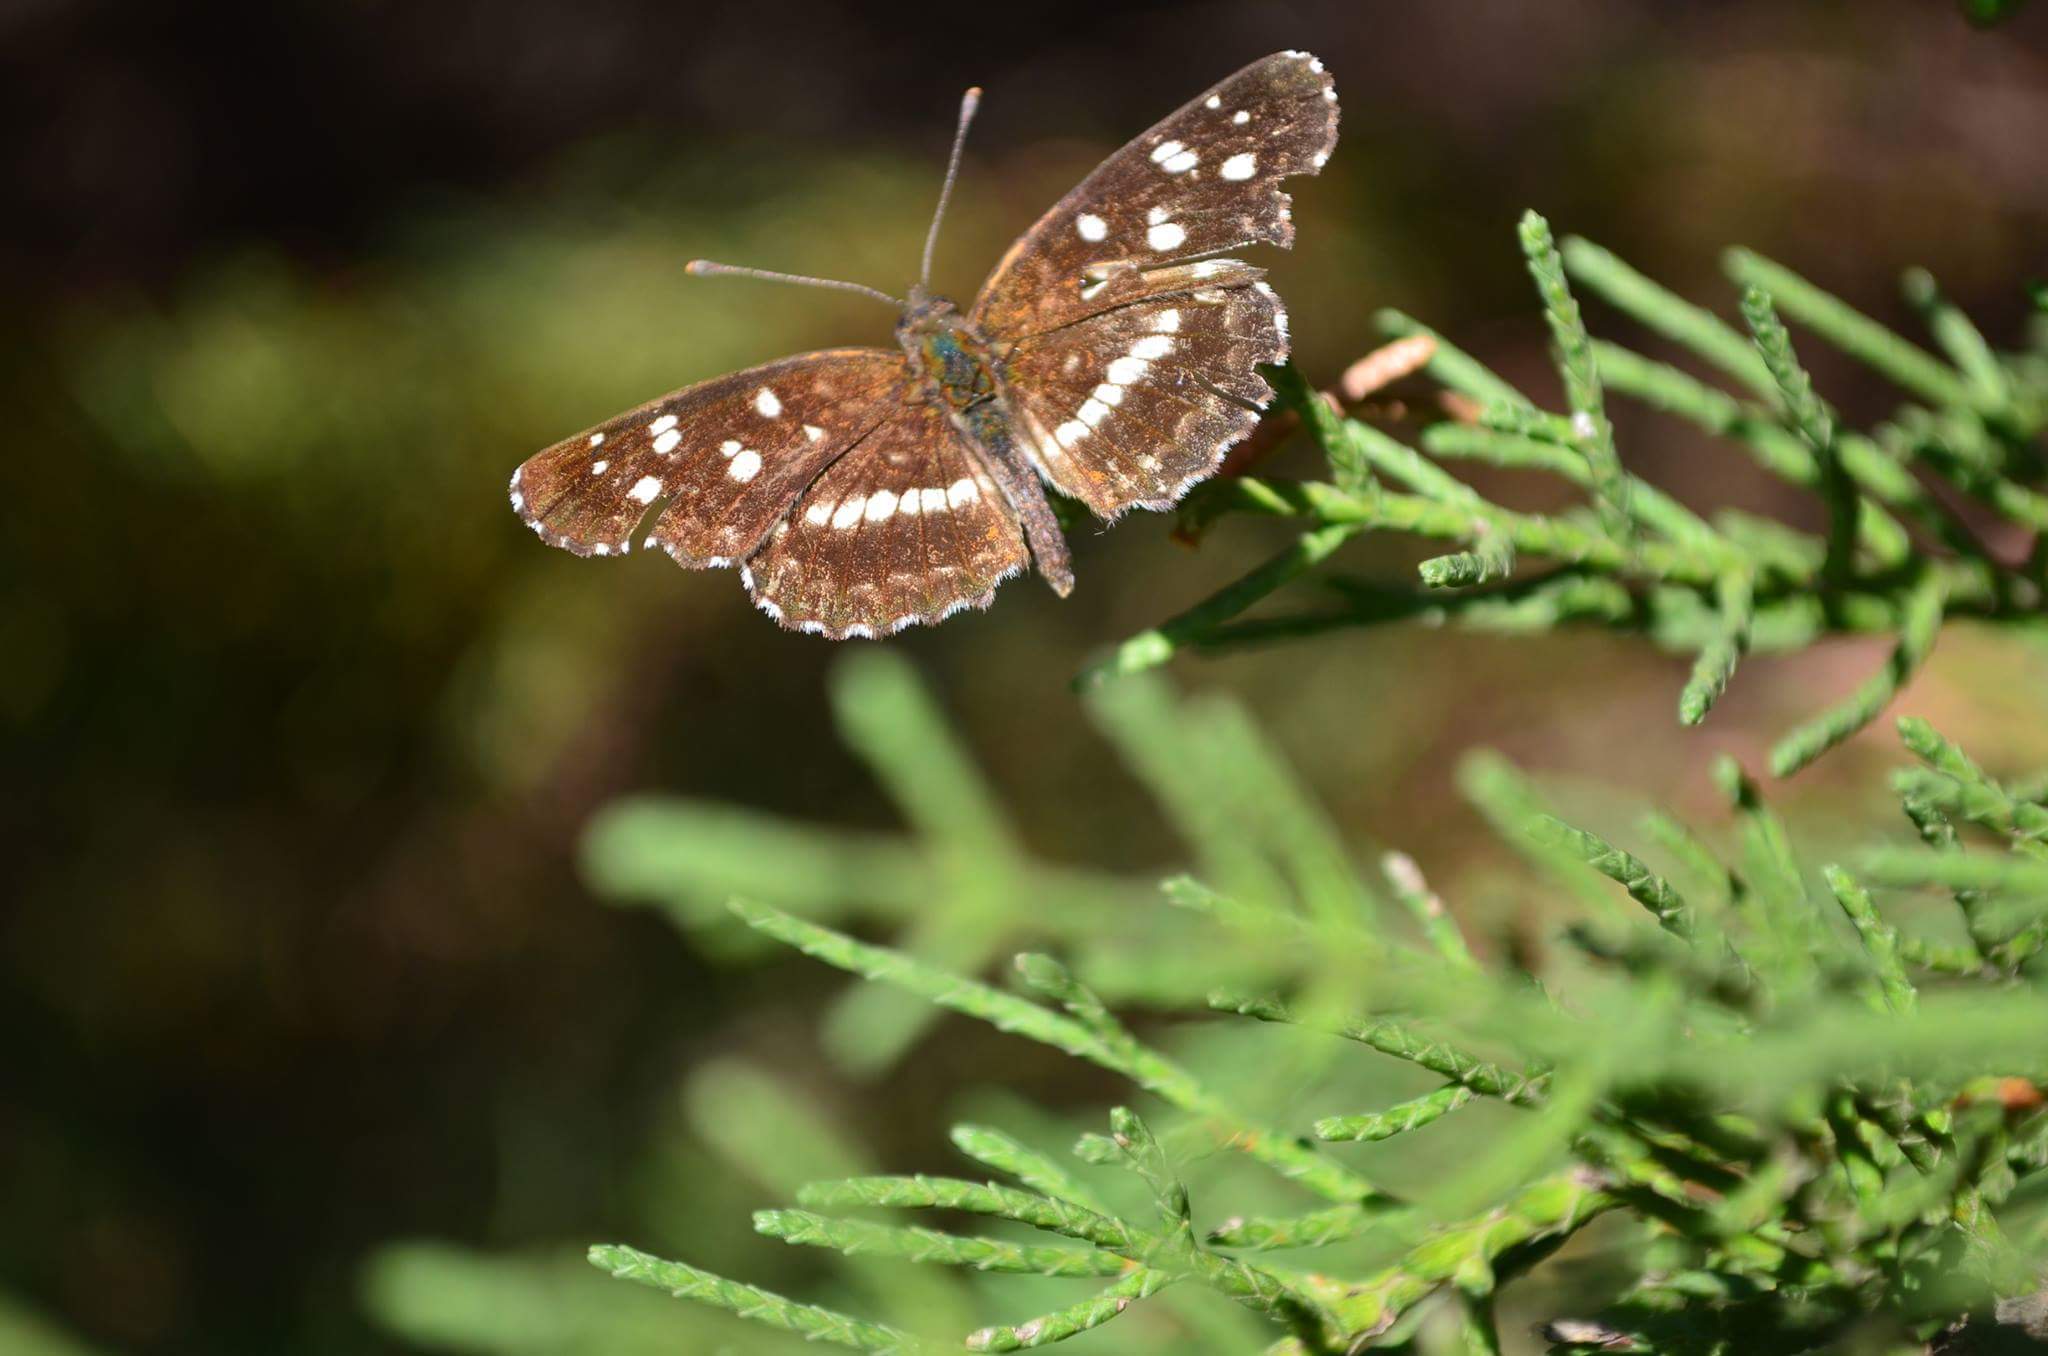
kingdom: Animalia
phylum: Arthropoda
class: Insecta
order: Lepidoptera
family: Nymphalidae
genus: Ortilia
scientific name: Ortilia ithra
